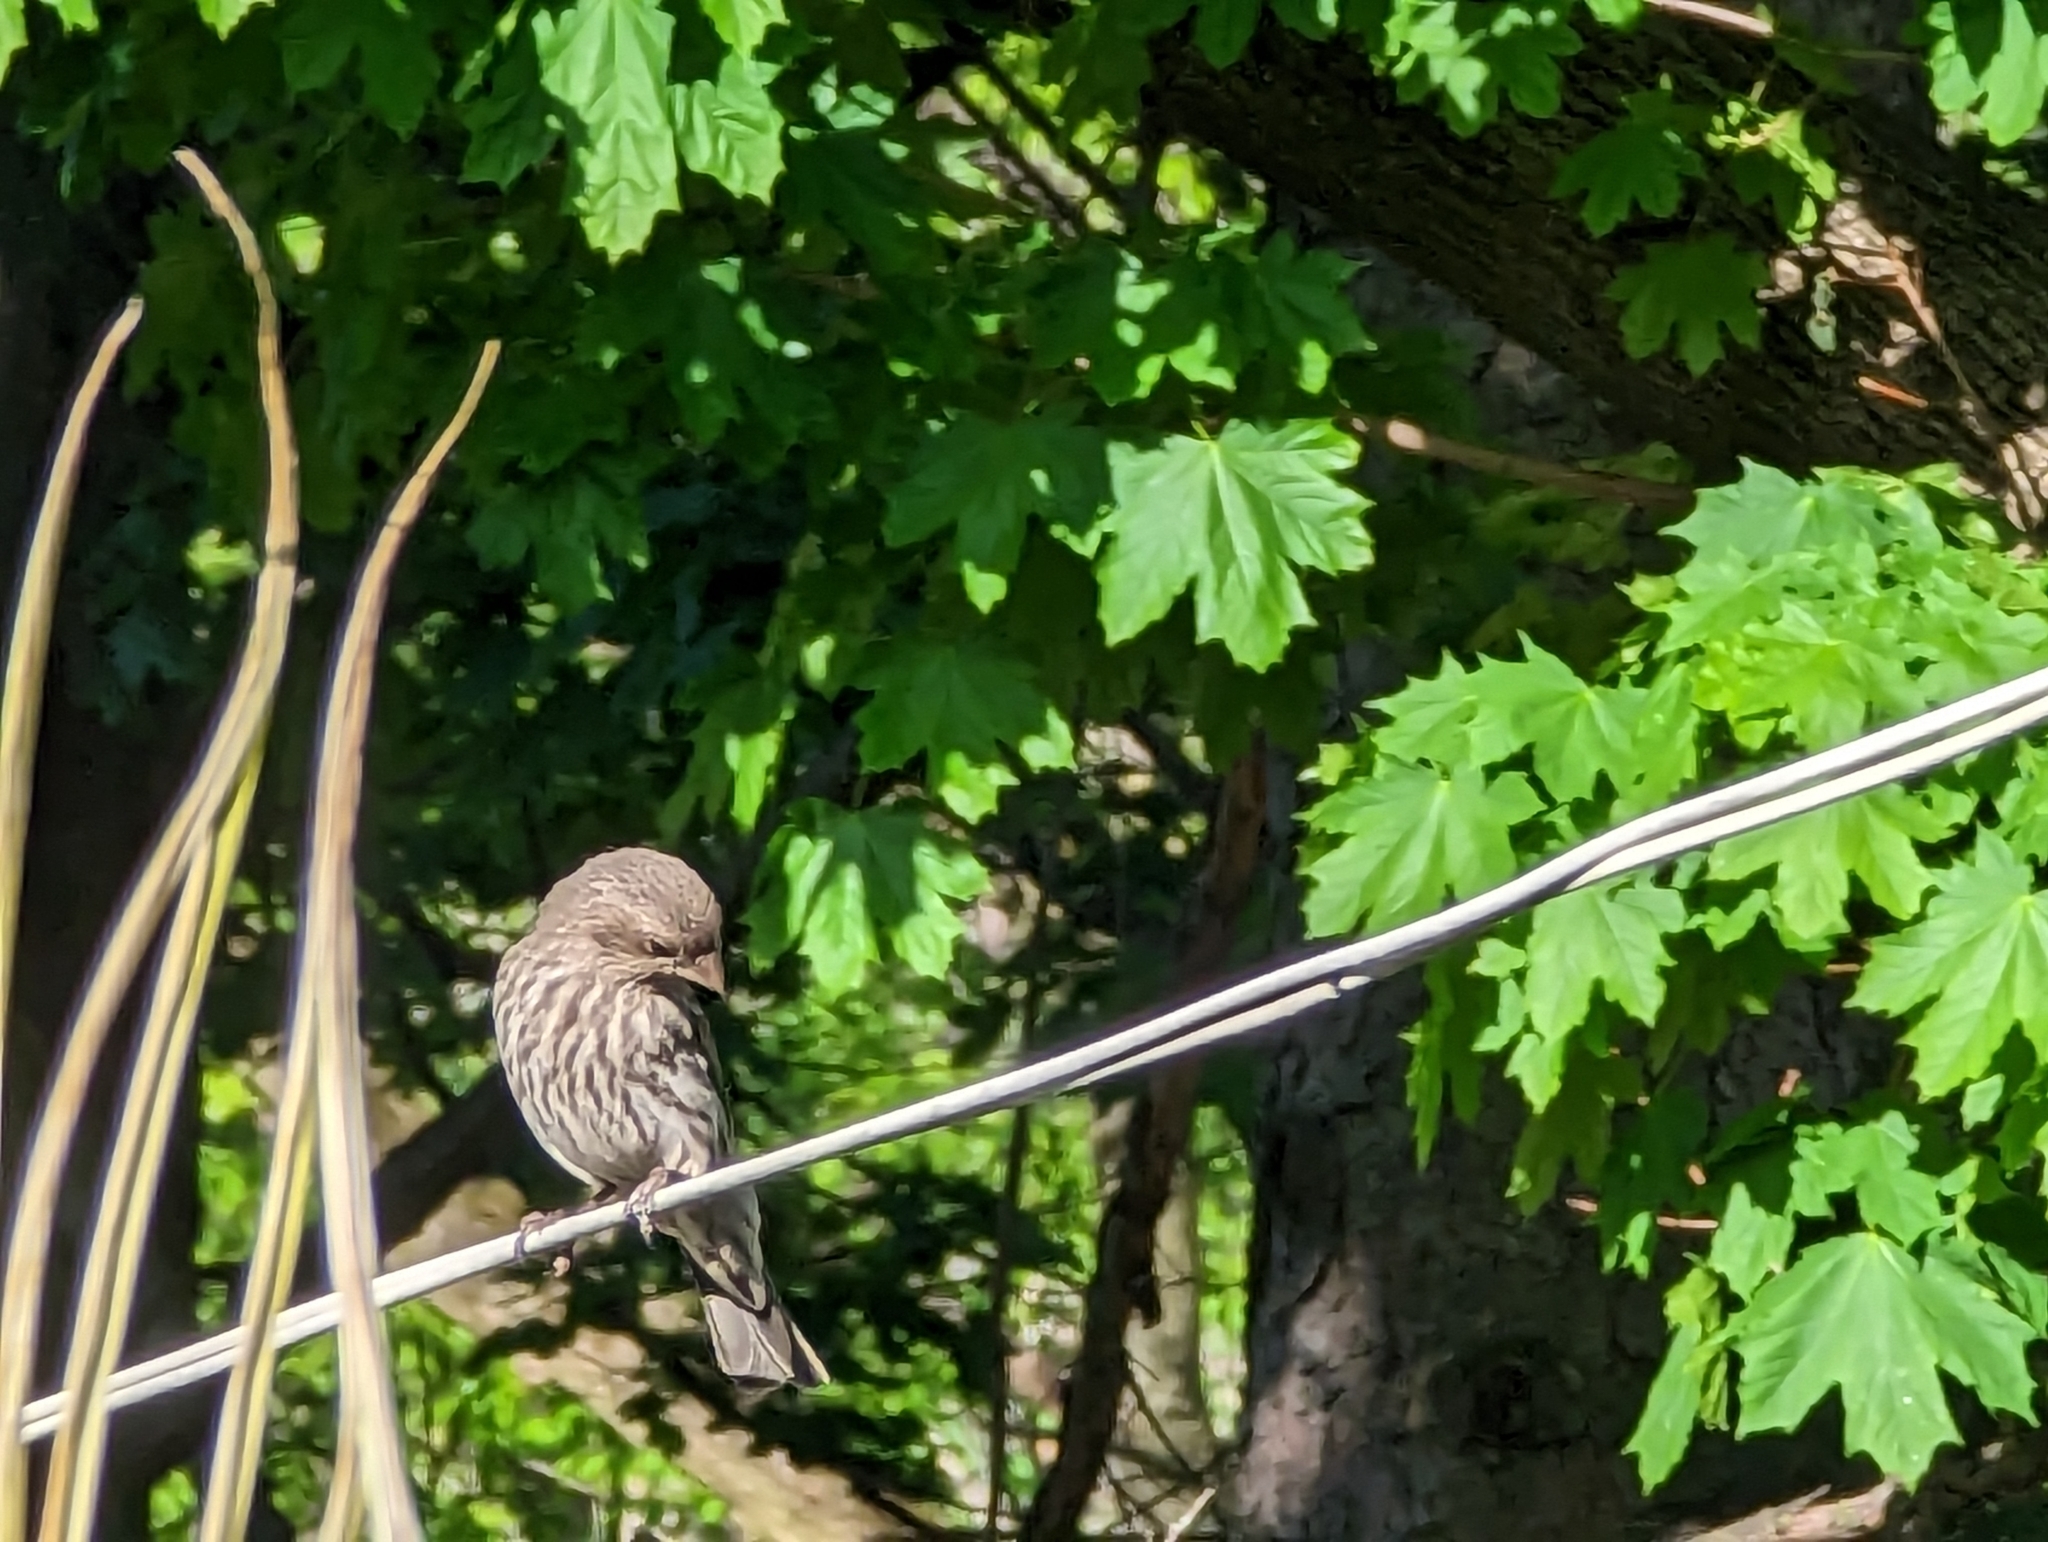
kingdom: Animalia
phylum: Chordata
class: Aves
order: Passeriformes
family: Fringillidae
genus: Haemorhous
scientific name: Haemorhous mexicanus
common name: House finch
